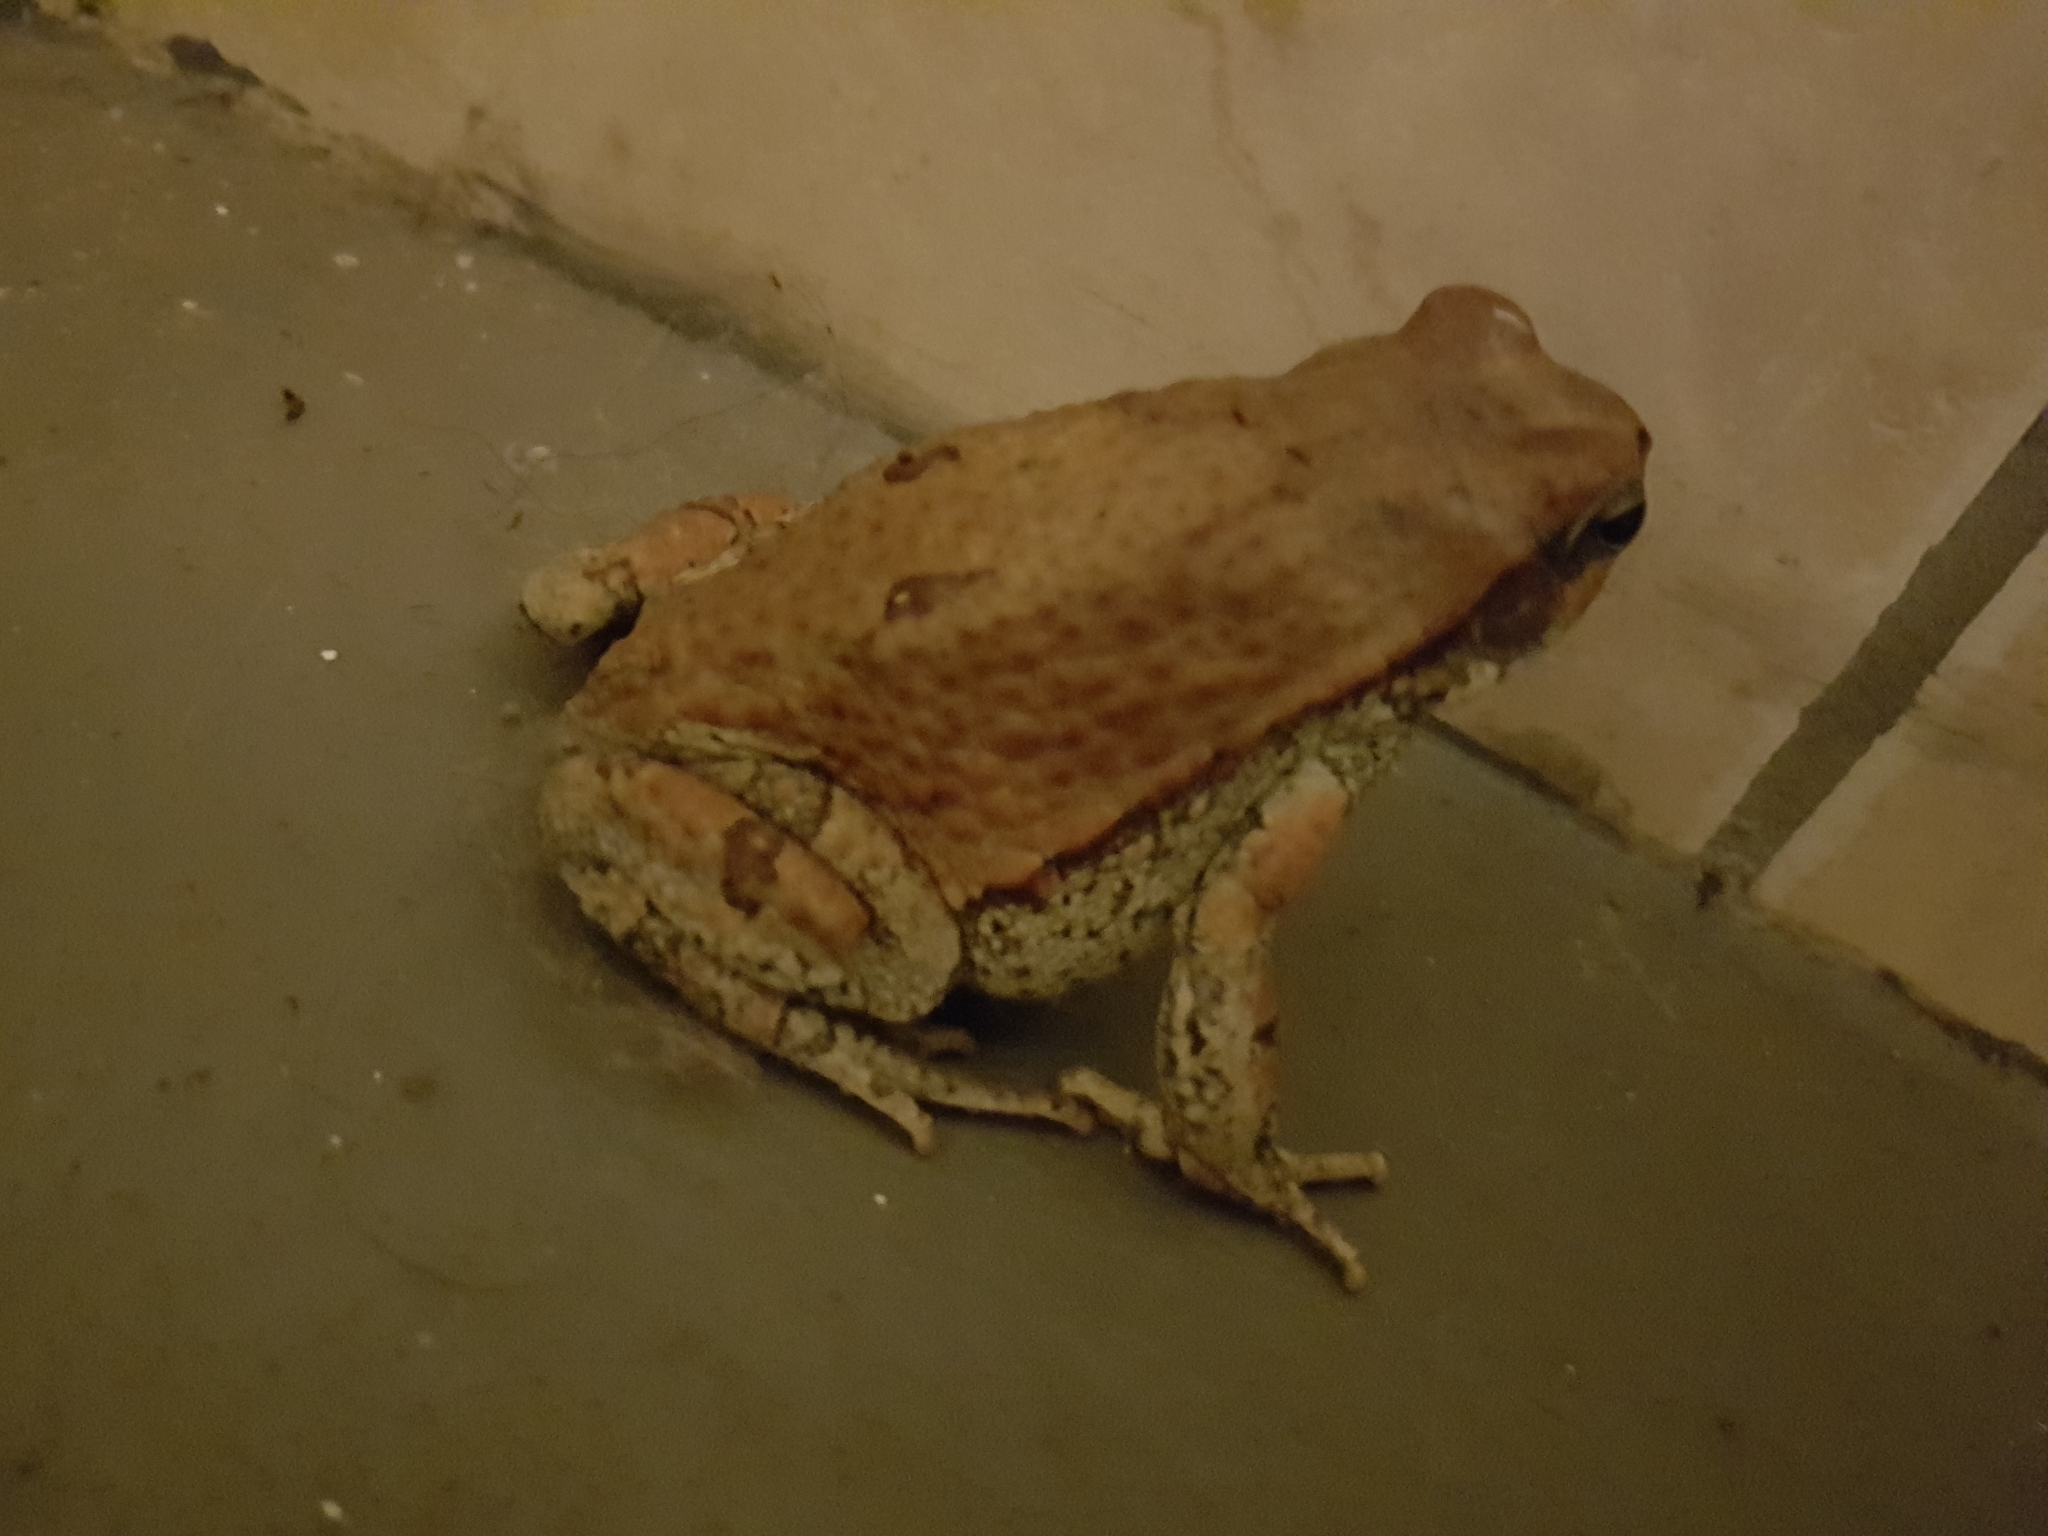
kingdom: Animalia
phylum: Chordata
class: Amphibia
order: Anura
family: Bufonidae
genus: Schismaderma
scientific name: Schismaderma carens
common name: African split-skin toad
